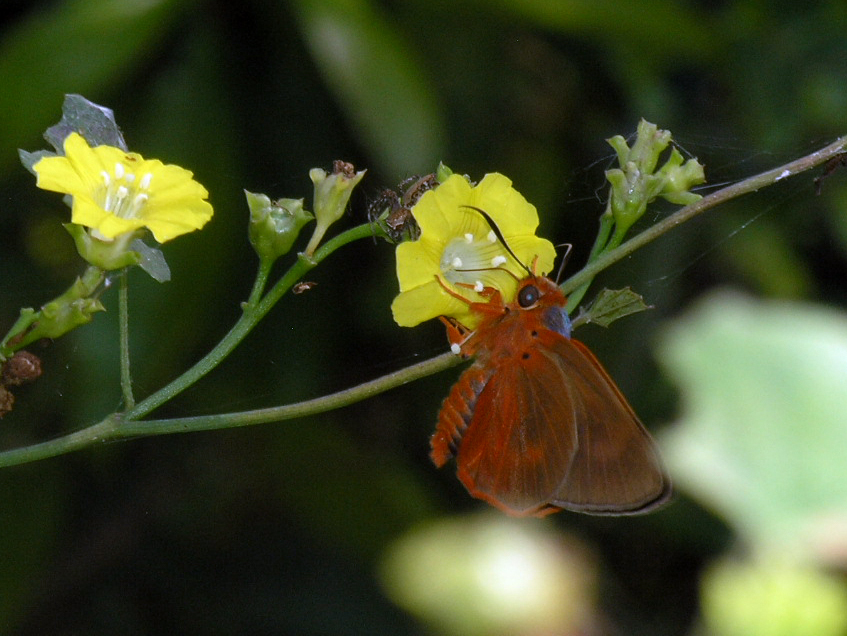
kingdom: Plantae
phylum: Tracheophyta
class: Magnoliopsida
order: Solanales
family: Convolvulaceae
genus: Merremia
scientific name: Merremia hederacea
